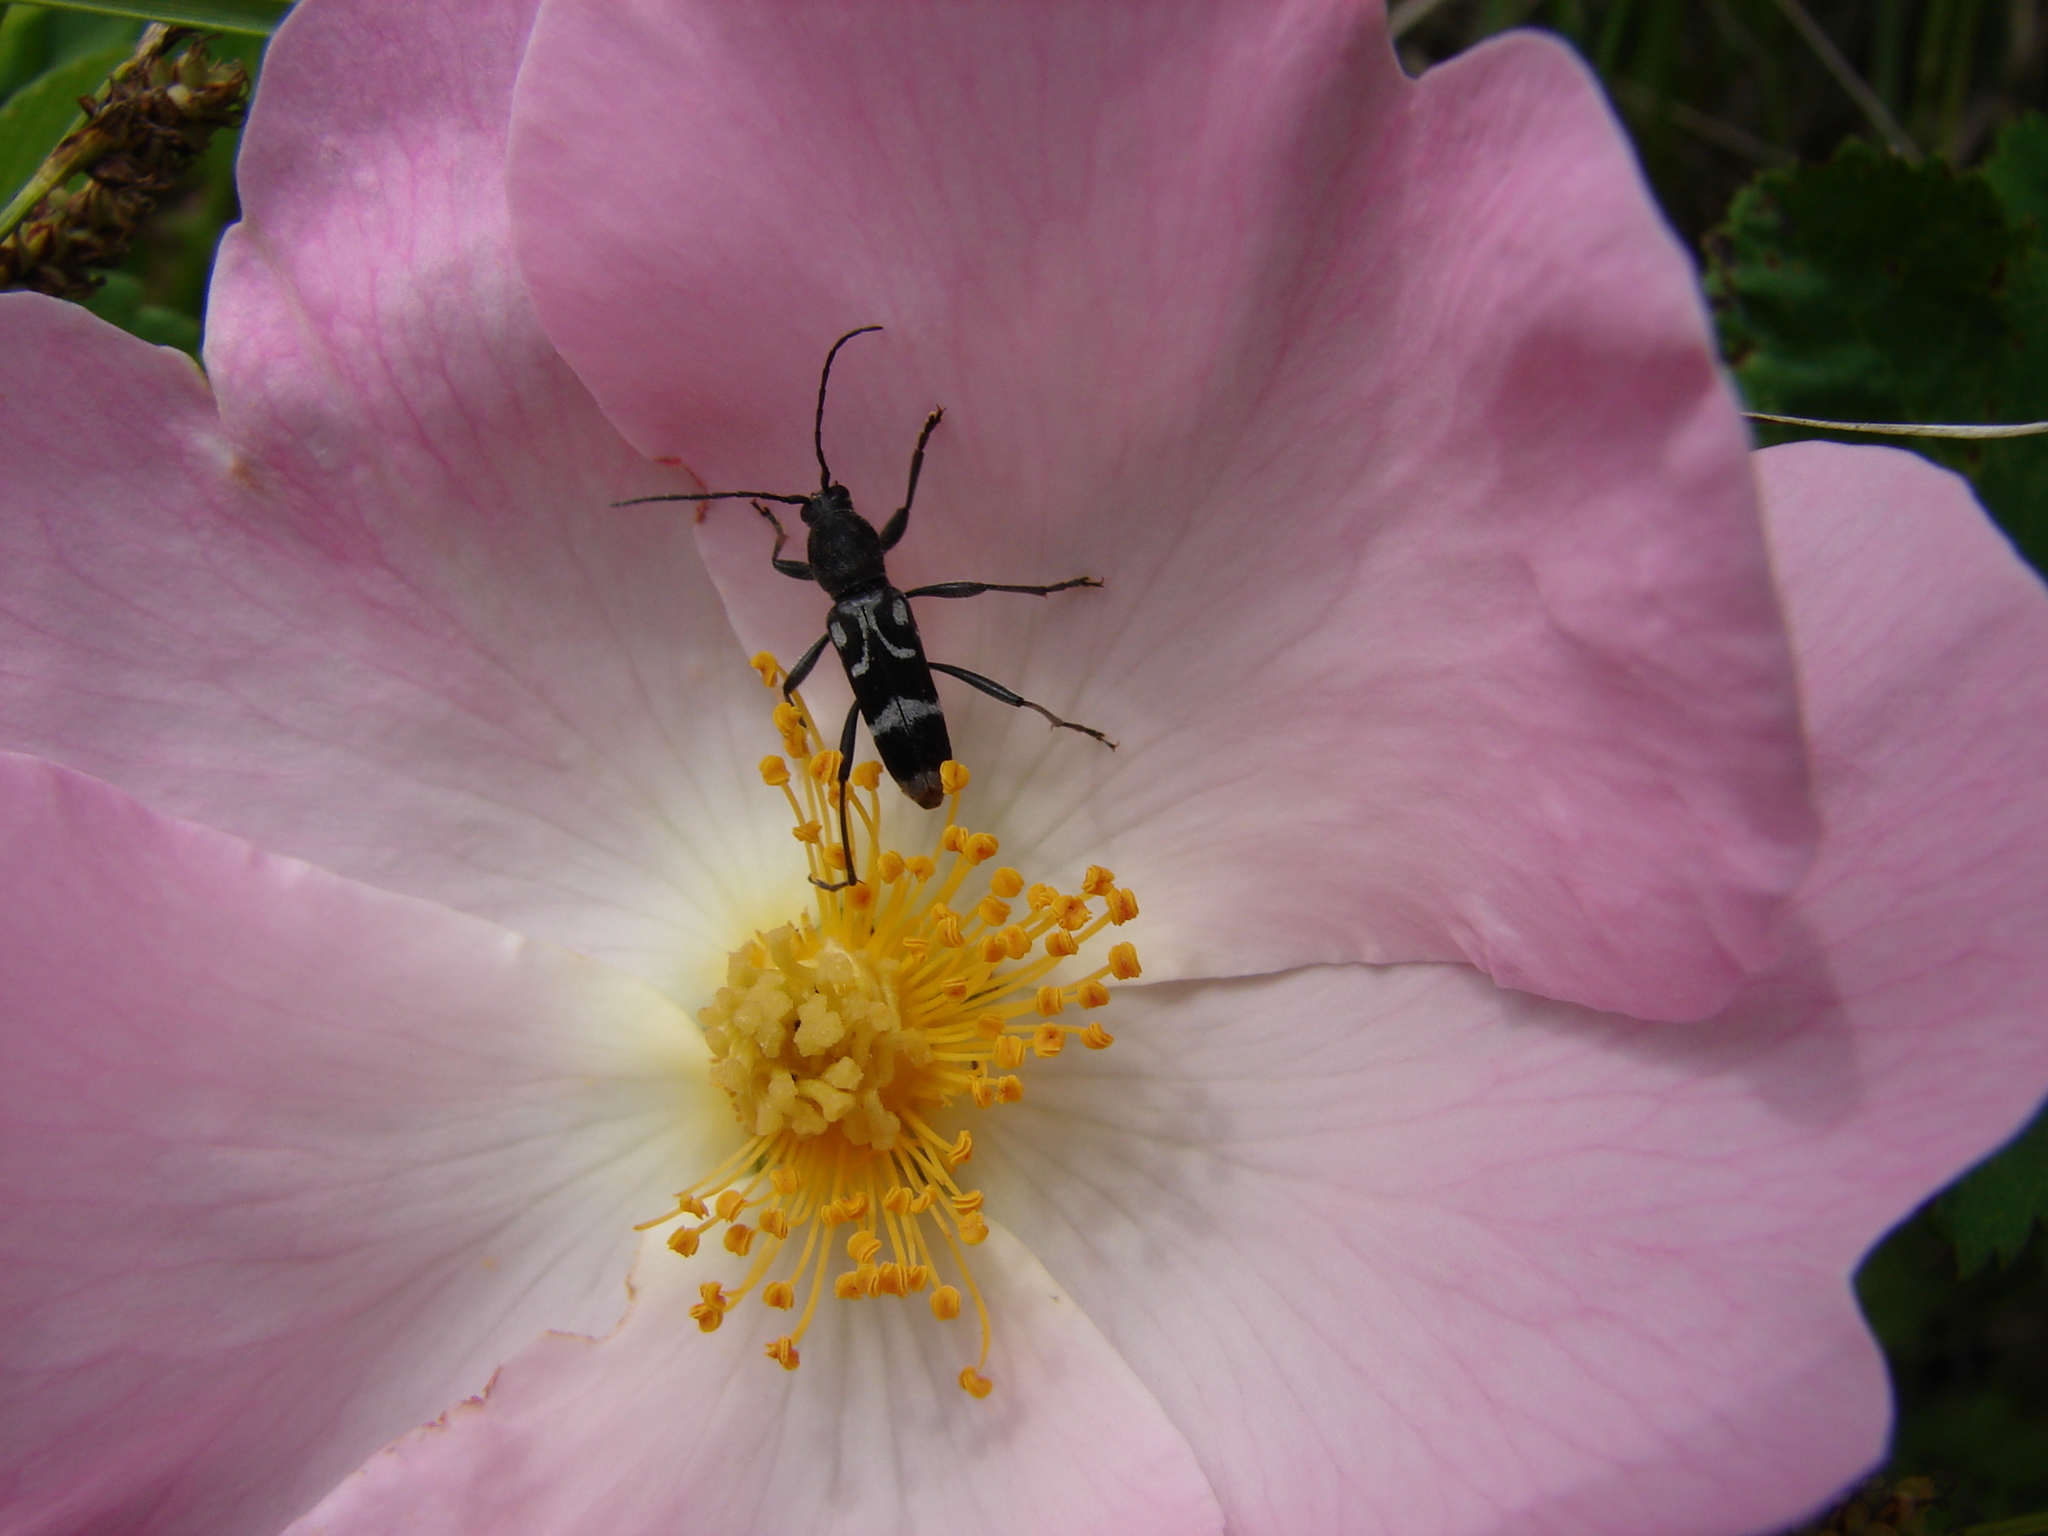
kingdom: Animalia
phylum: Arthropoda
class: Insecta
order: Coleoptera
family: Cerambycidae
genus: Chlorophorus
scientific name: Chlorophorus figuratus
